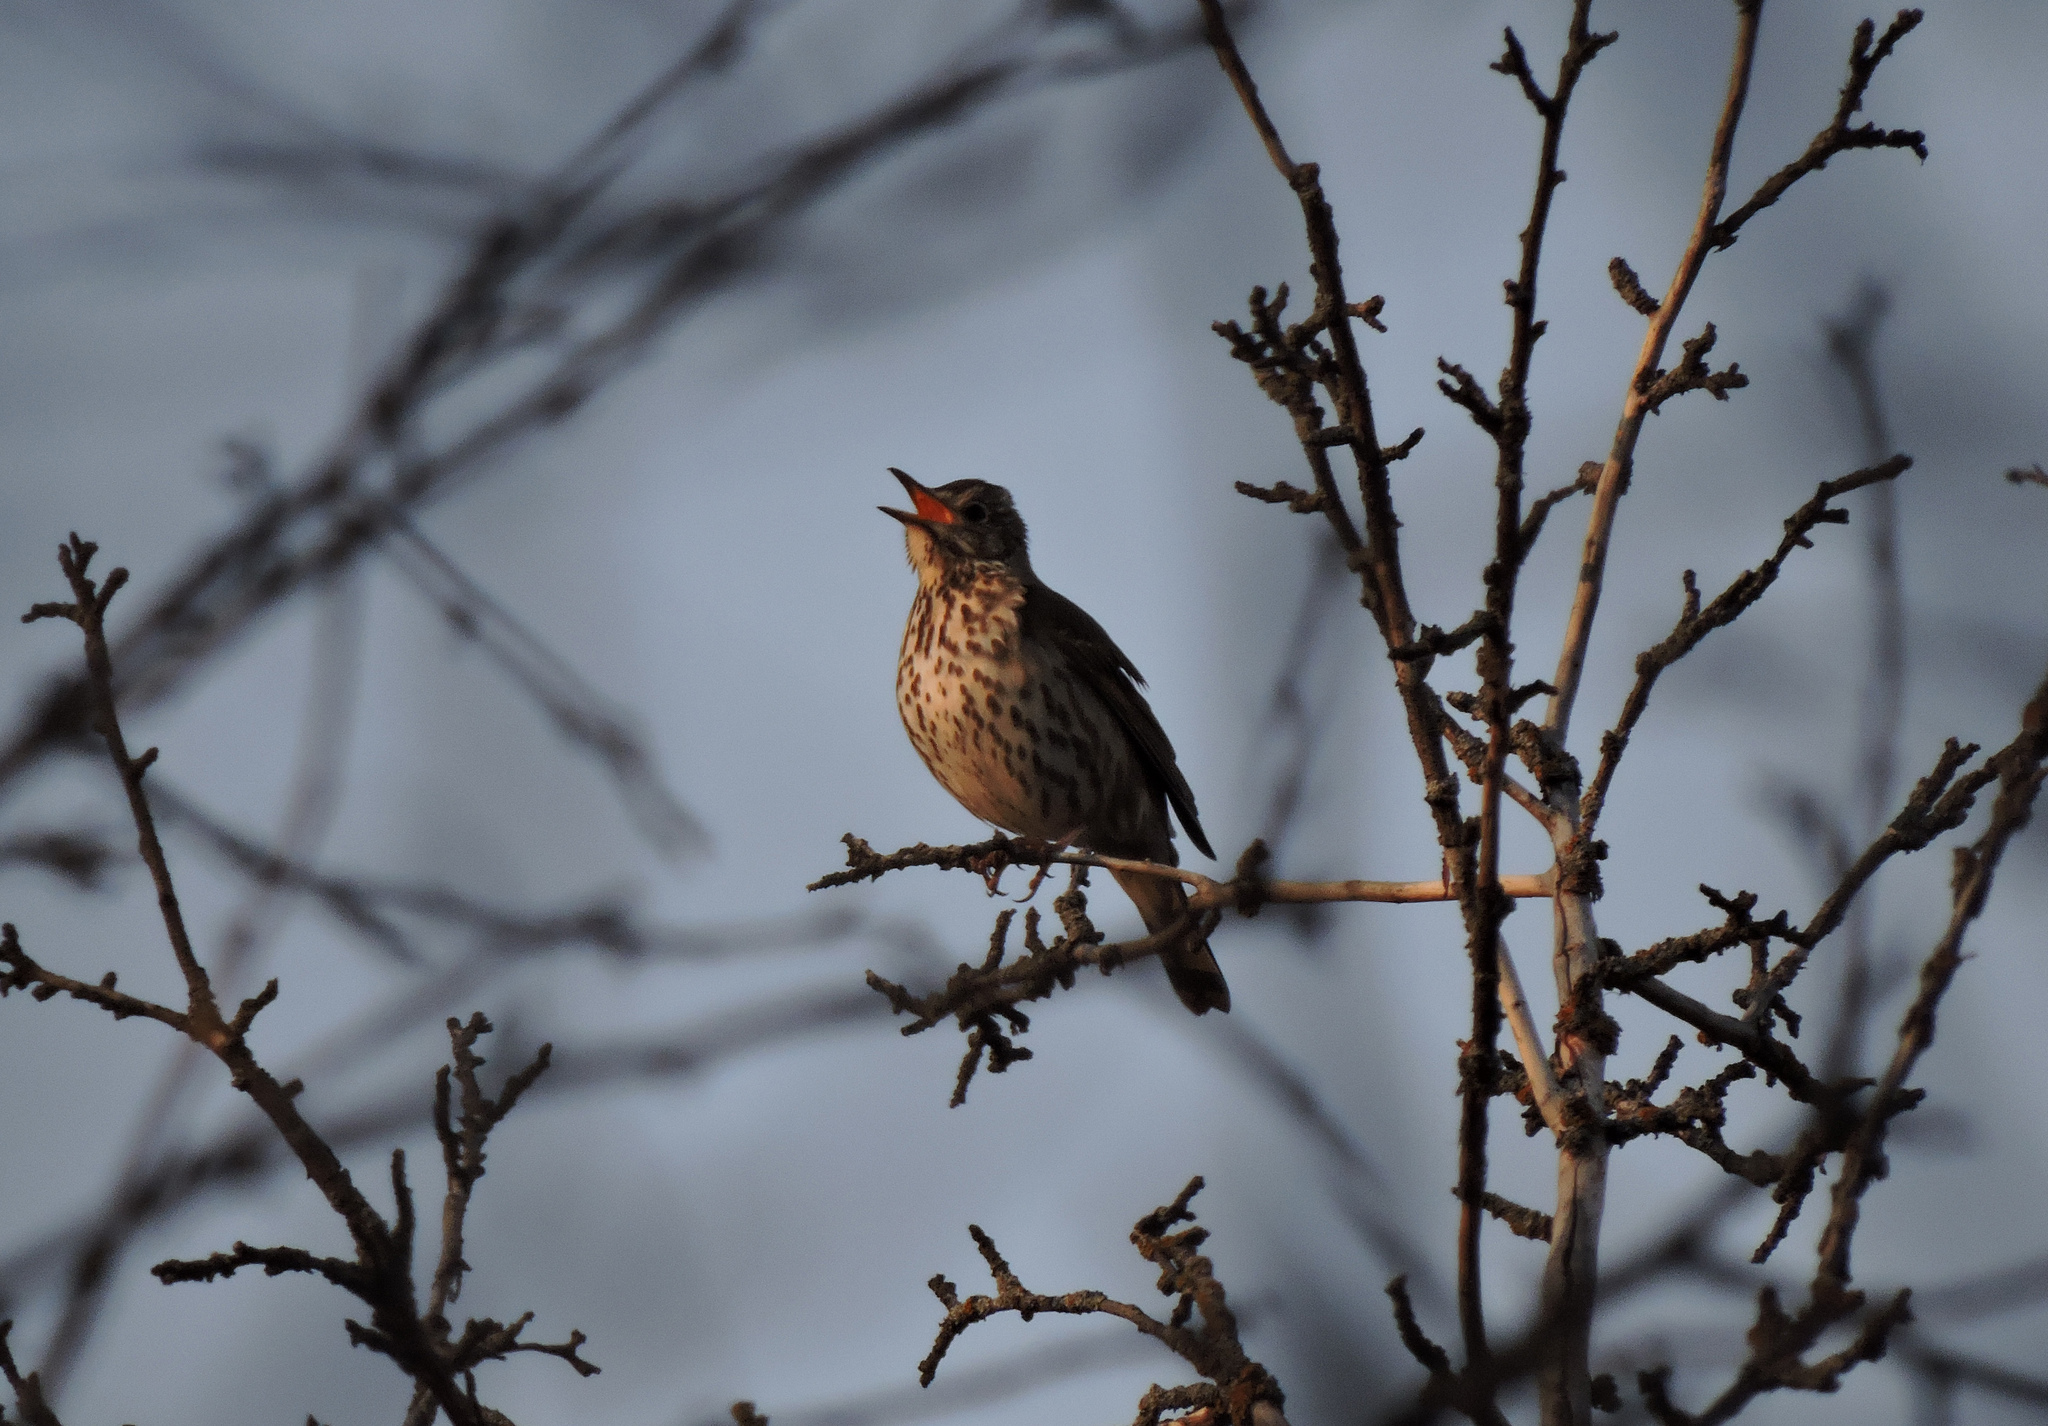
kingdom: Animalia
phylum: Chordata
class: Aves
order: Passeriformes
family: Turdidae
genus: Turdus
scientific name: Turdus philomelos
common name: Song thrush
